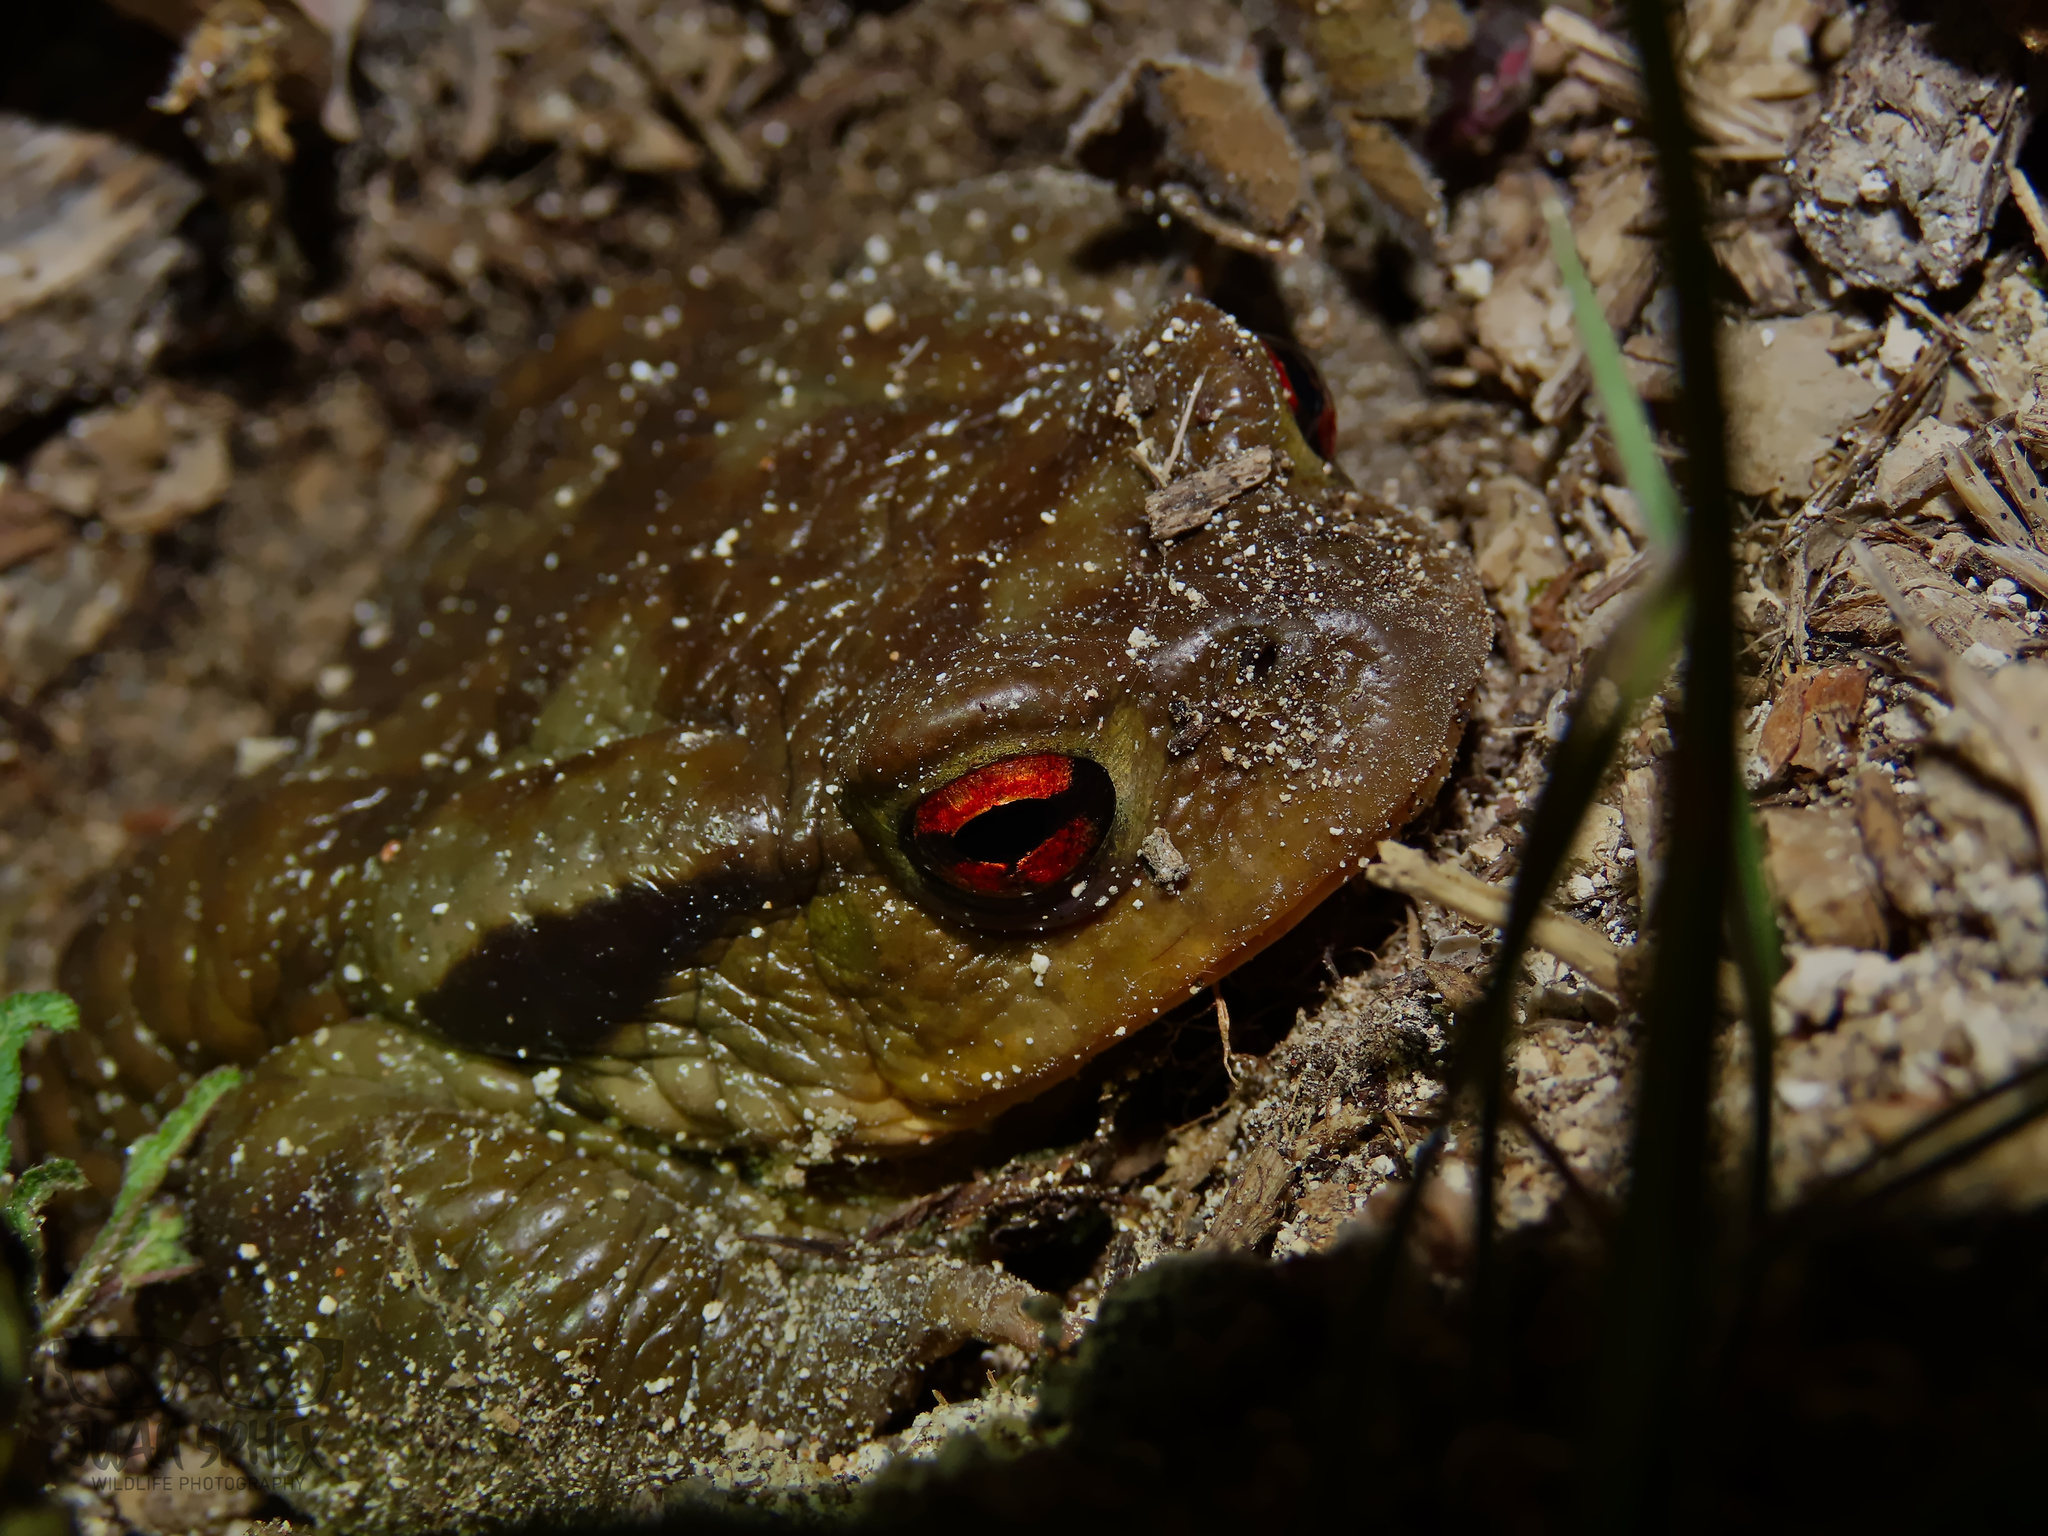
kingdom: Animalia
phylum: Chordata
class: Amphibia
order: Anura
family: Bufonidae
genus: Bufo
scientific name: Bufo spinosus
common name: Western common toad
